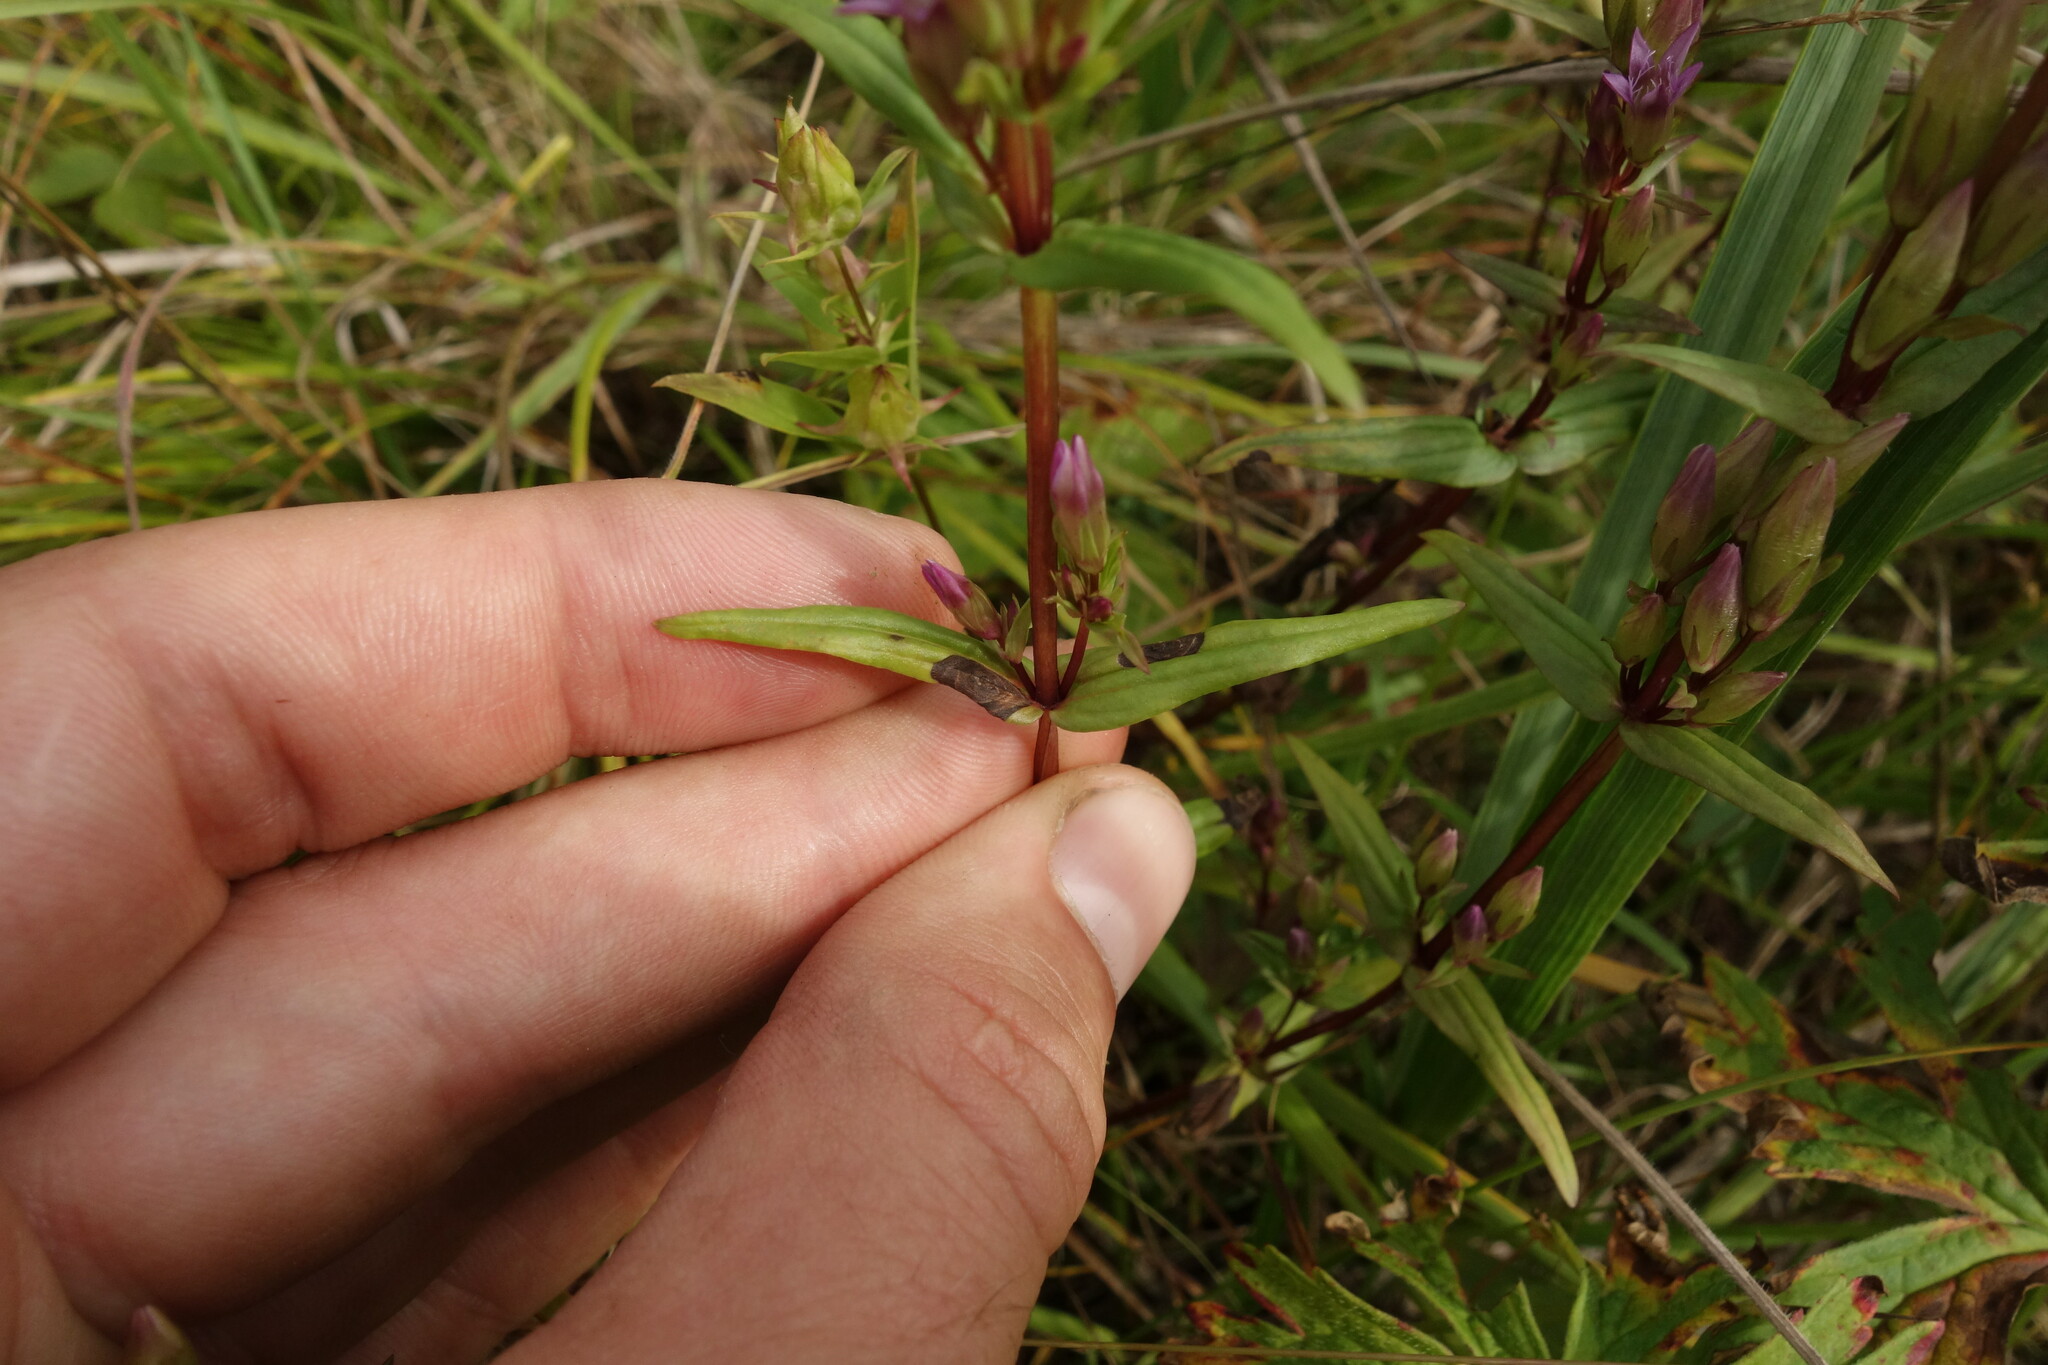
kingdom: Plantae
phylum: Tracheophyta
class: Magnoliopsida
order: Gentianales
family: Gentianaceae
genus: Gentianella
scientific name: Gentianella amarella
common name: Autumn gentian
